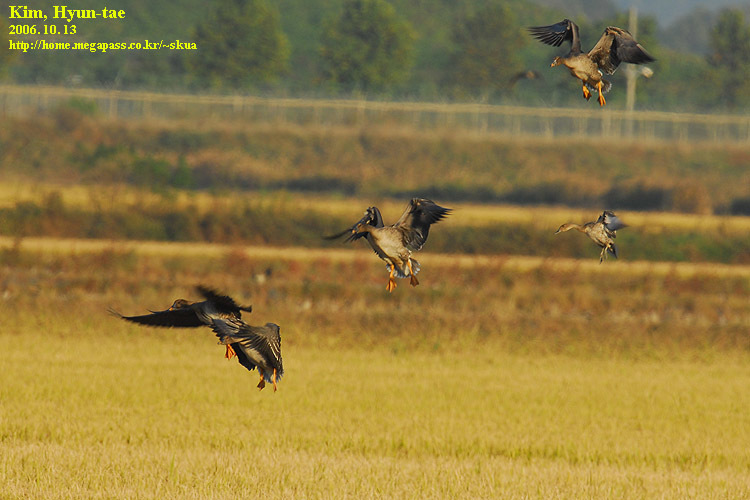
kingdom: Animalia
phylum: Chordata
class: Aves
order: Anseriformes
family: Anatidae
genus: Anser
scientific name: Anser fabalis
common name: Bean goose
